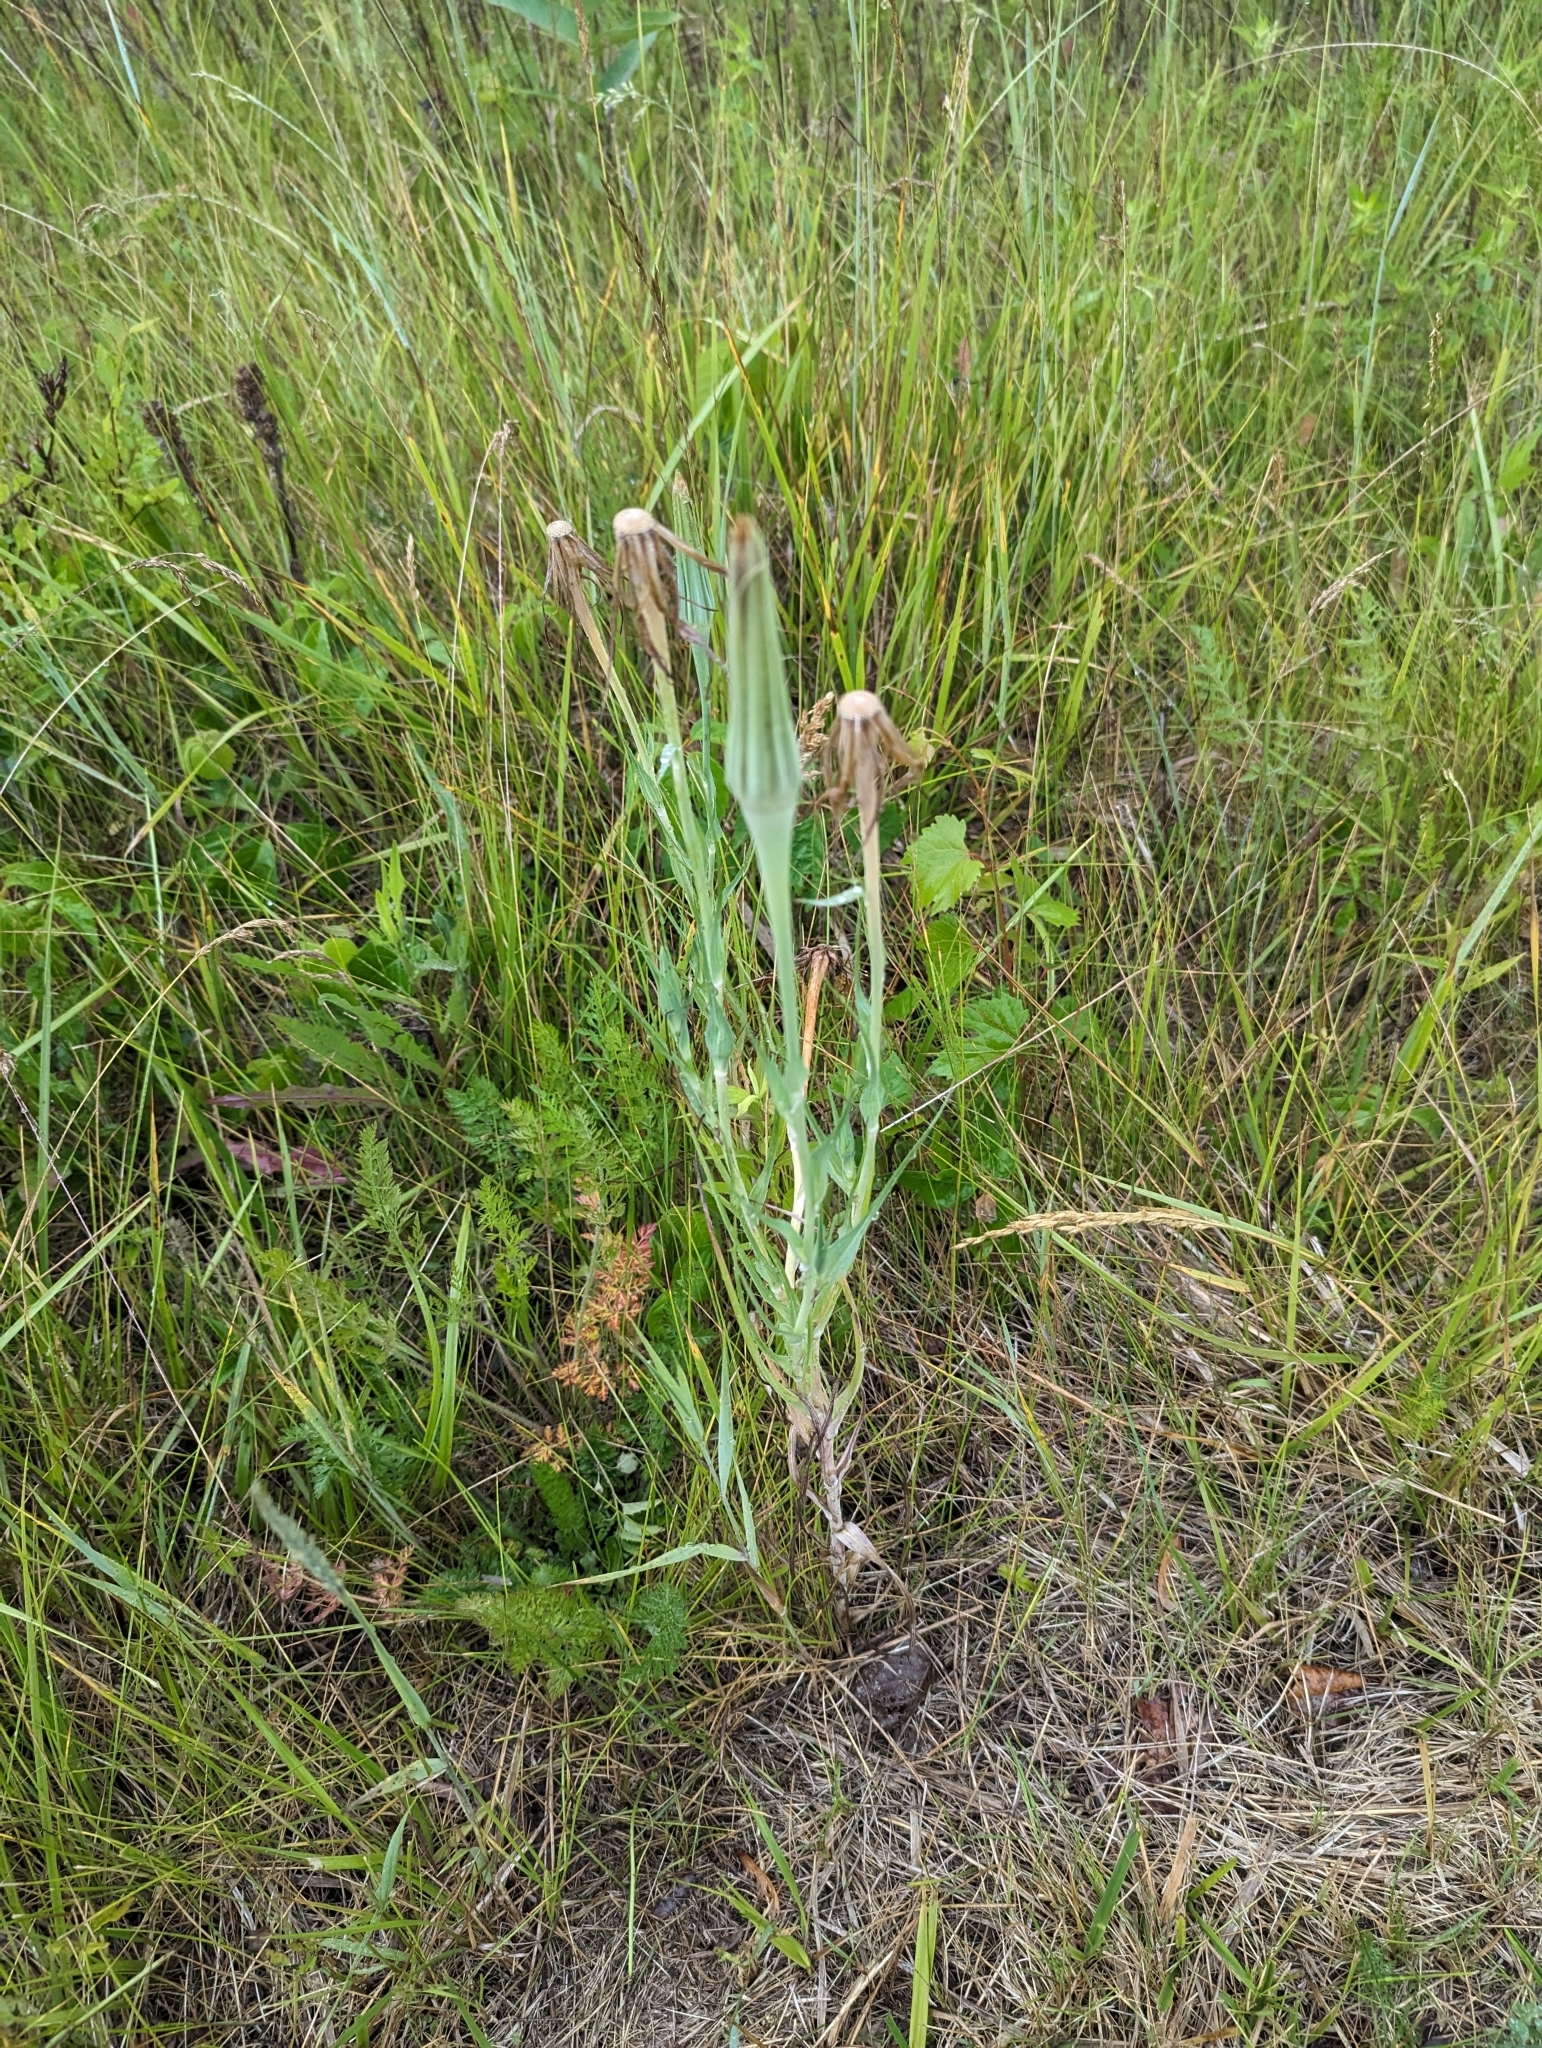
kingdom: Plantae
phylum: Tracheophyta
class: Magnoliopsida
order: Asterales
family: Asteraceae
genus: Tragopogon
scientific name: Tragopogon dubius
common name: Yellow salsify
